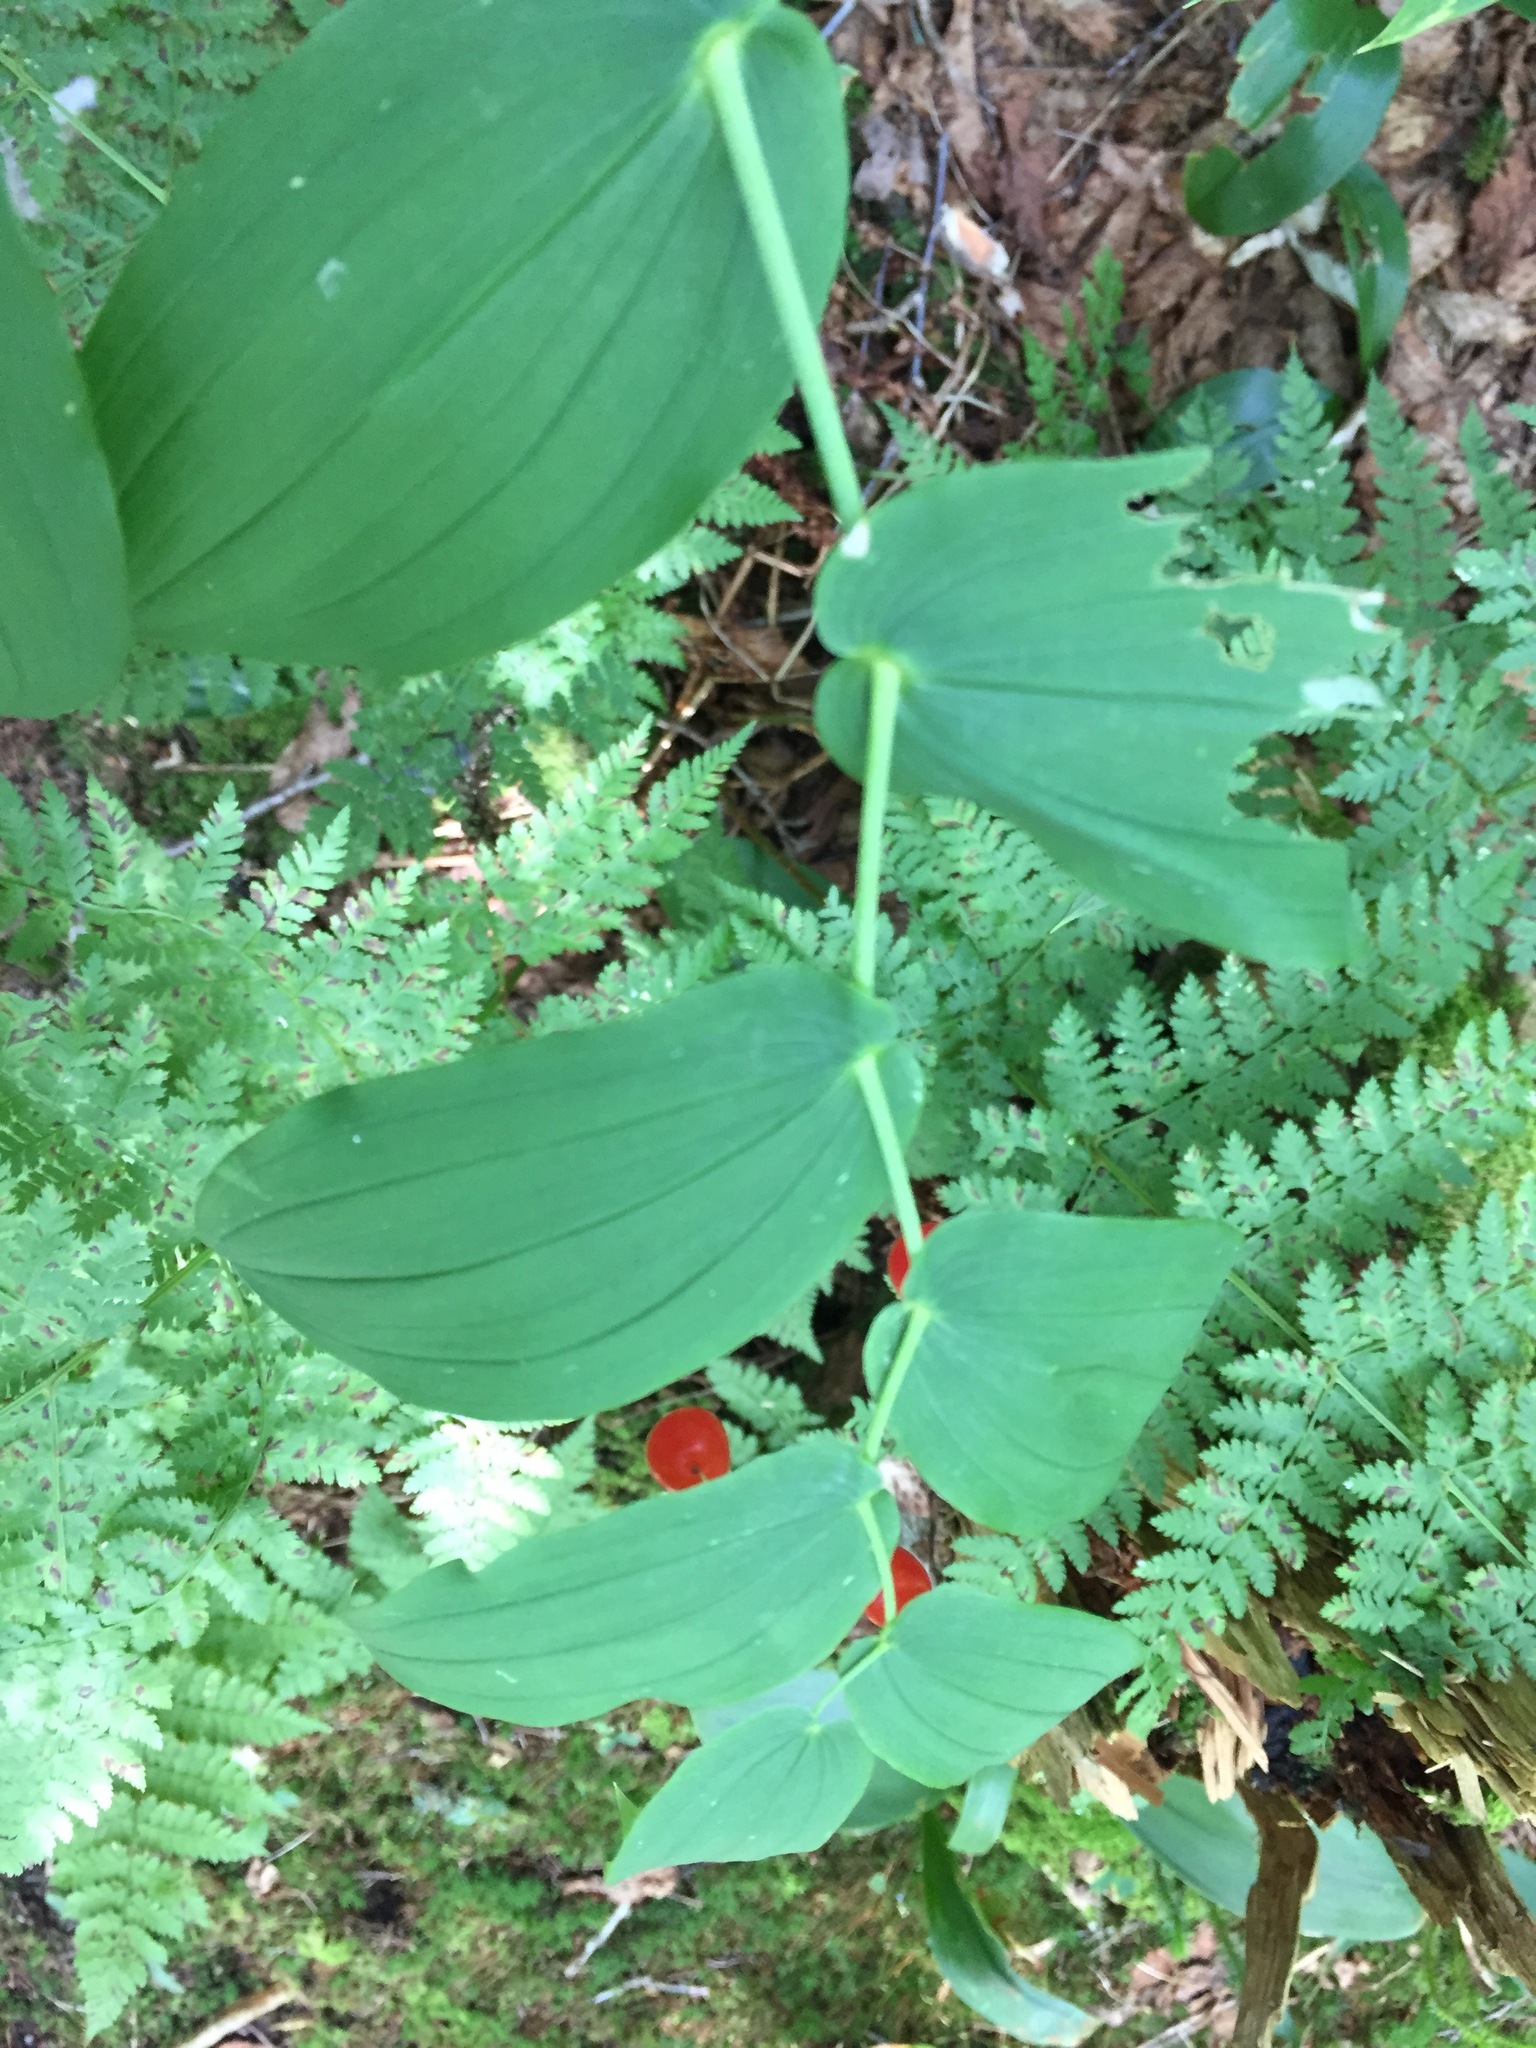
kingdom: Plantae
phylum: Tracheophyta
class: Liliopsida
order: Liliales
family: Liliaceae
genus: Streptopus
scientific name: Streptopus amplexifolius
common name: Clasp twisted stalk
